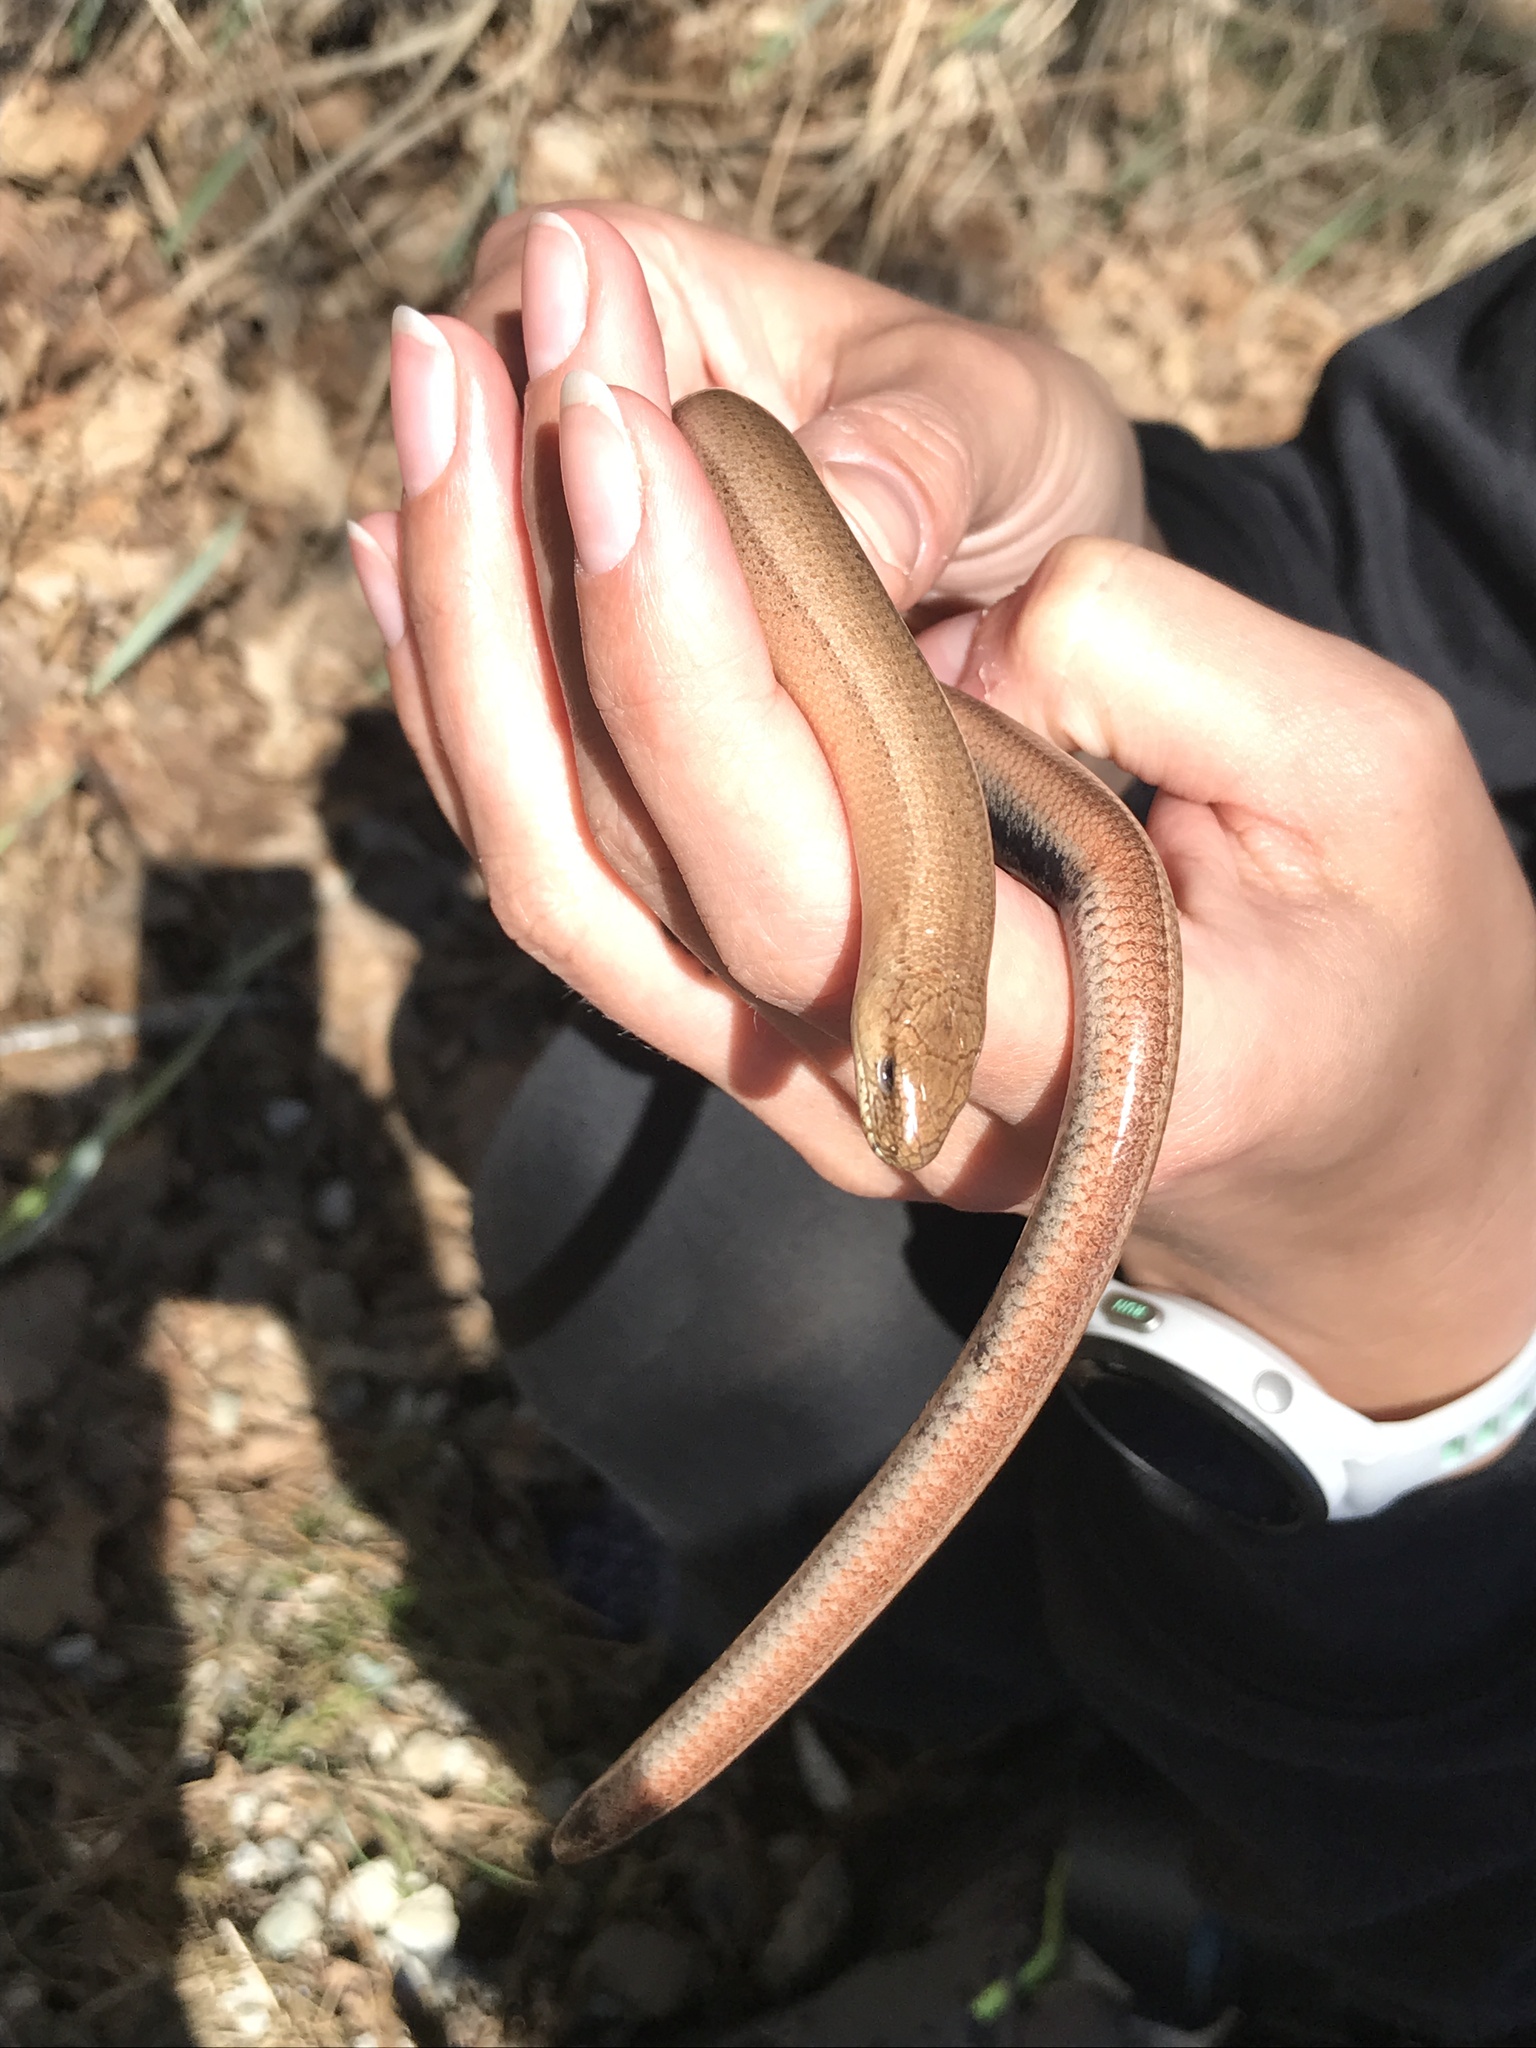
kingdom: Animalia
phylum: Chordata
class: Squamata
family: Anguidae
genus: Anguis
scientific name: Anguis fragilis
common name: Slow worm
